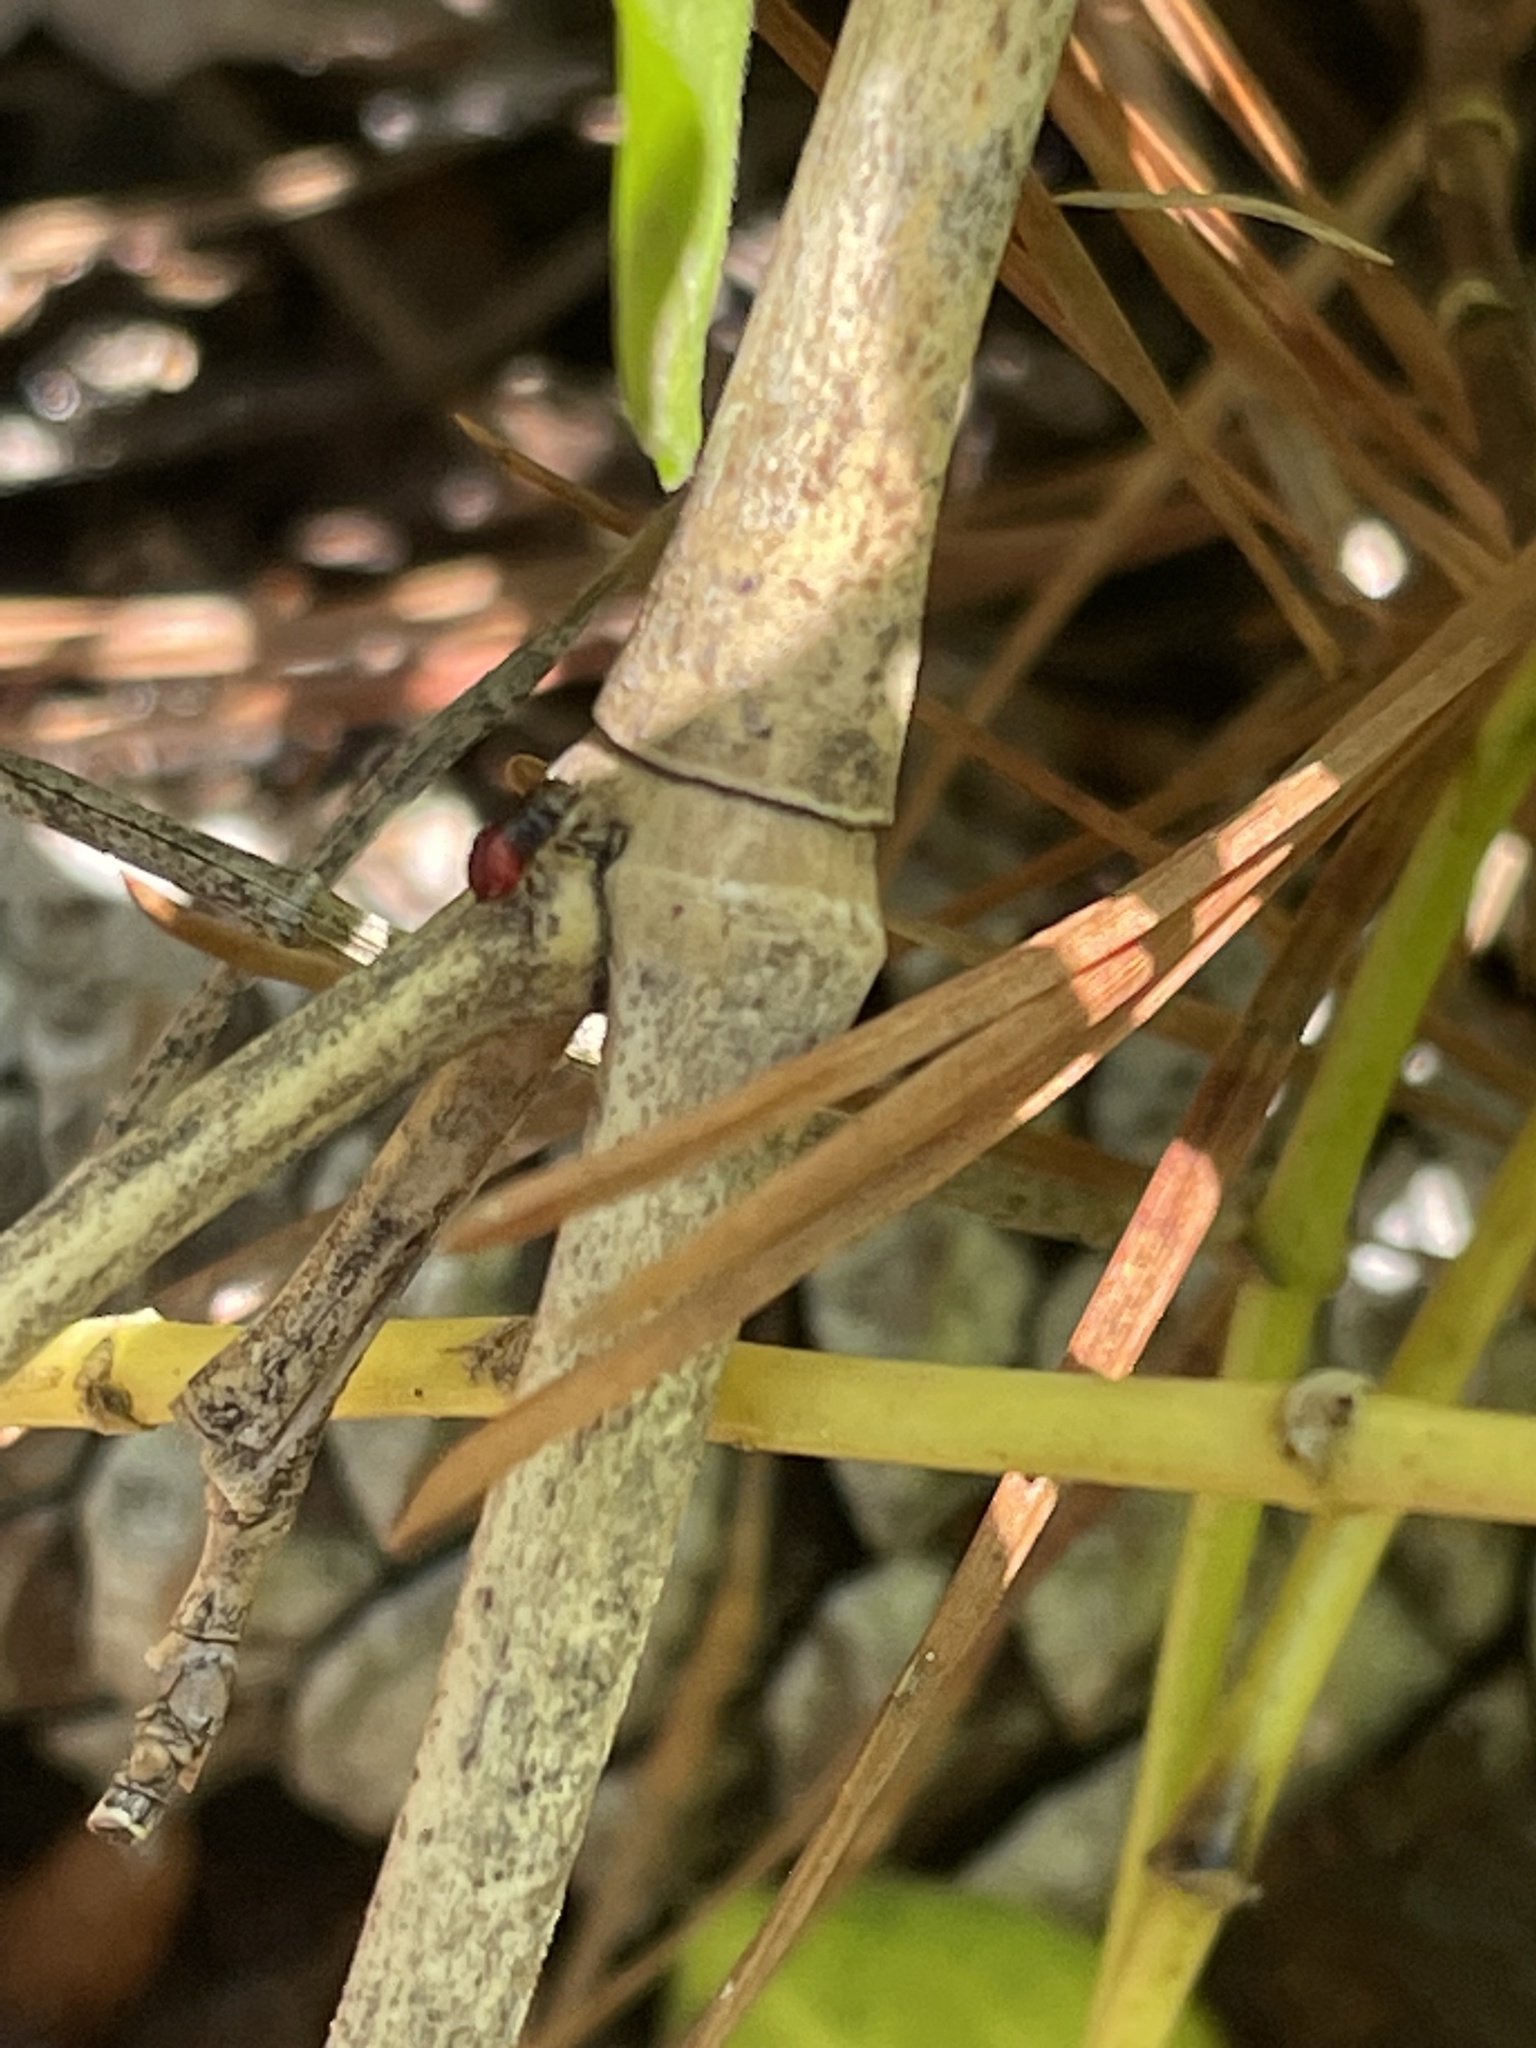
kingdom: Animalia
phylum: Arthropoda
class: Insecta
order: Hemiptera
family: Aphrophoridae
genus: Aphrophora
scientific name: Aphrophora saratogensis
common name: Saratoga spittlebug
